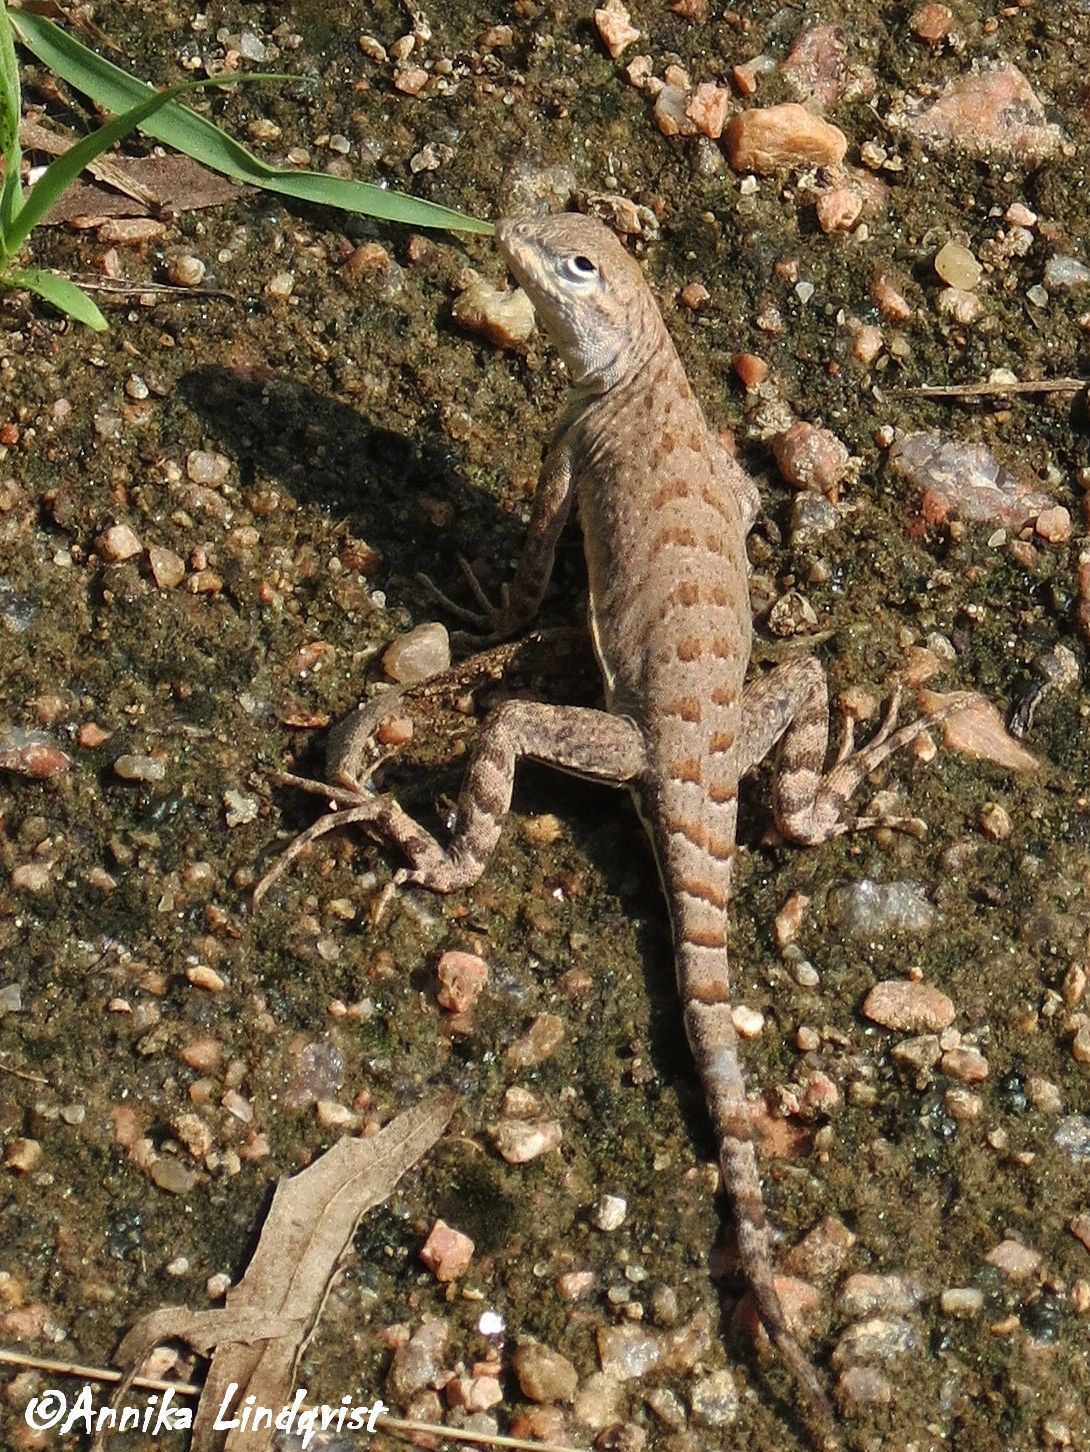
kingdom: Animalia
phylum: Chordata
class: Squamata
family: Phrynosomatidae
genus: Cophosaurus
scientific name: Cophosaurus texanus
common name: Greater earless lizard
